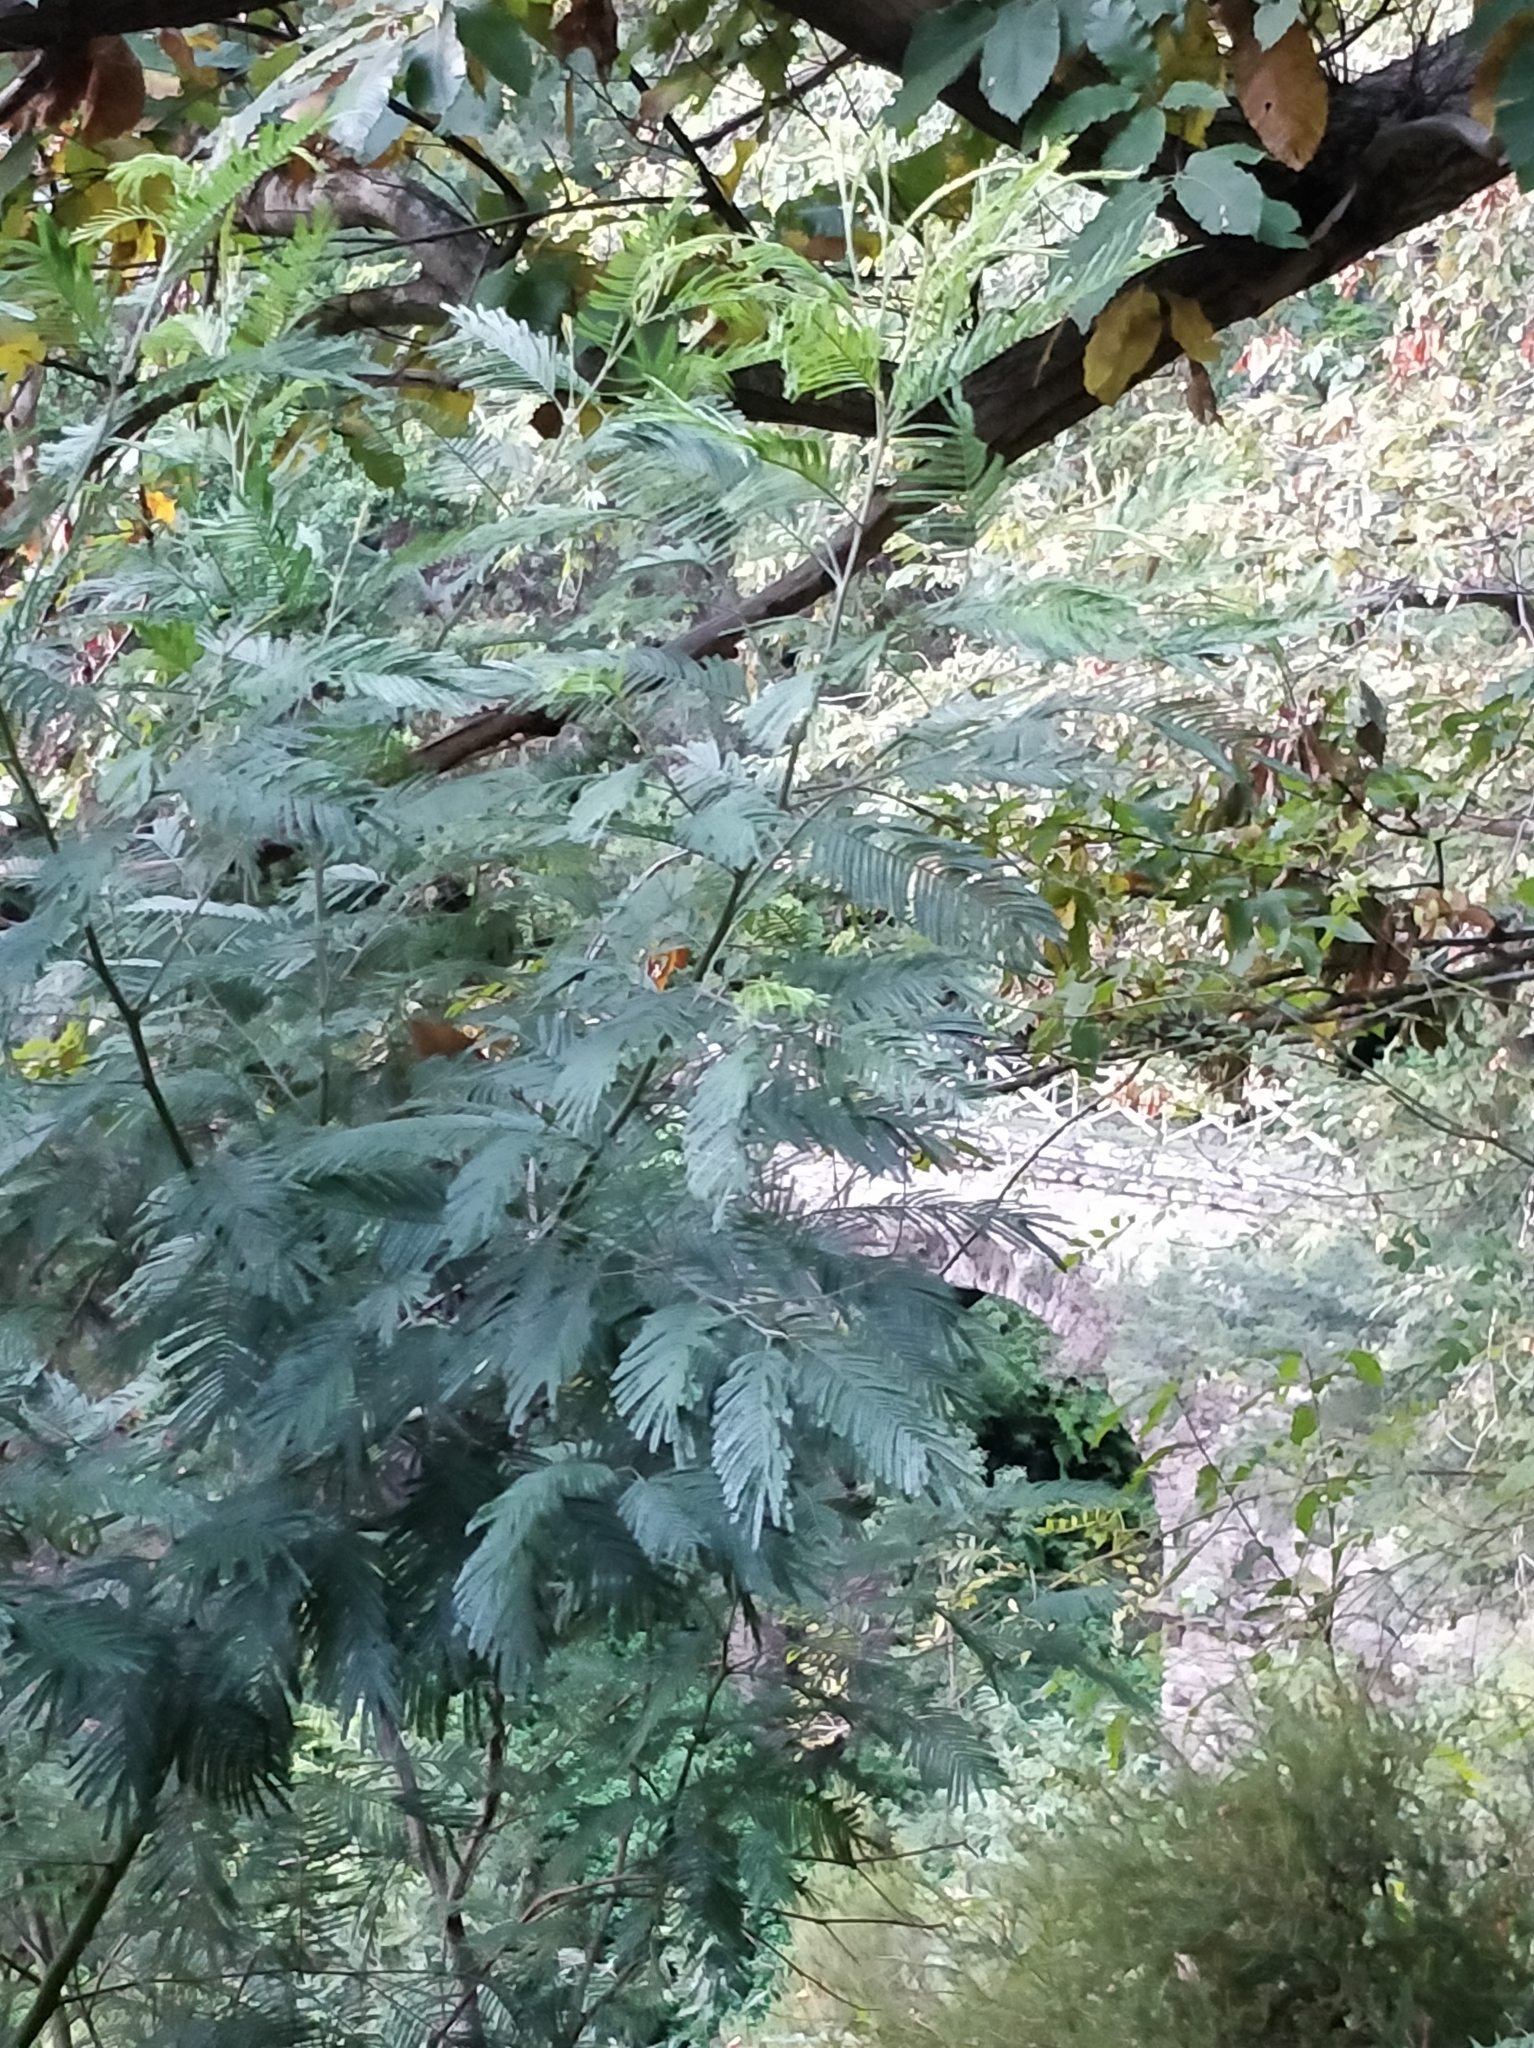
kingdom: Plantae
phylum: Tracheophyta
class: Magnoliopsida
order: Fabales
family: Fabaceae
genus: Acacia
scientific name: Acacia mearnsii
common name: Black wattle
